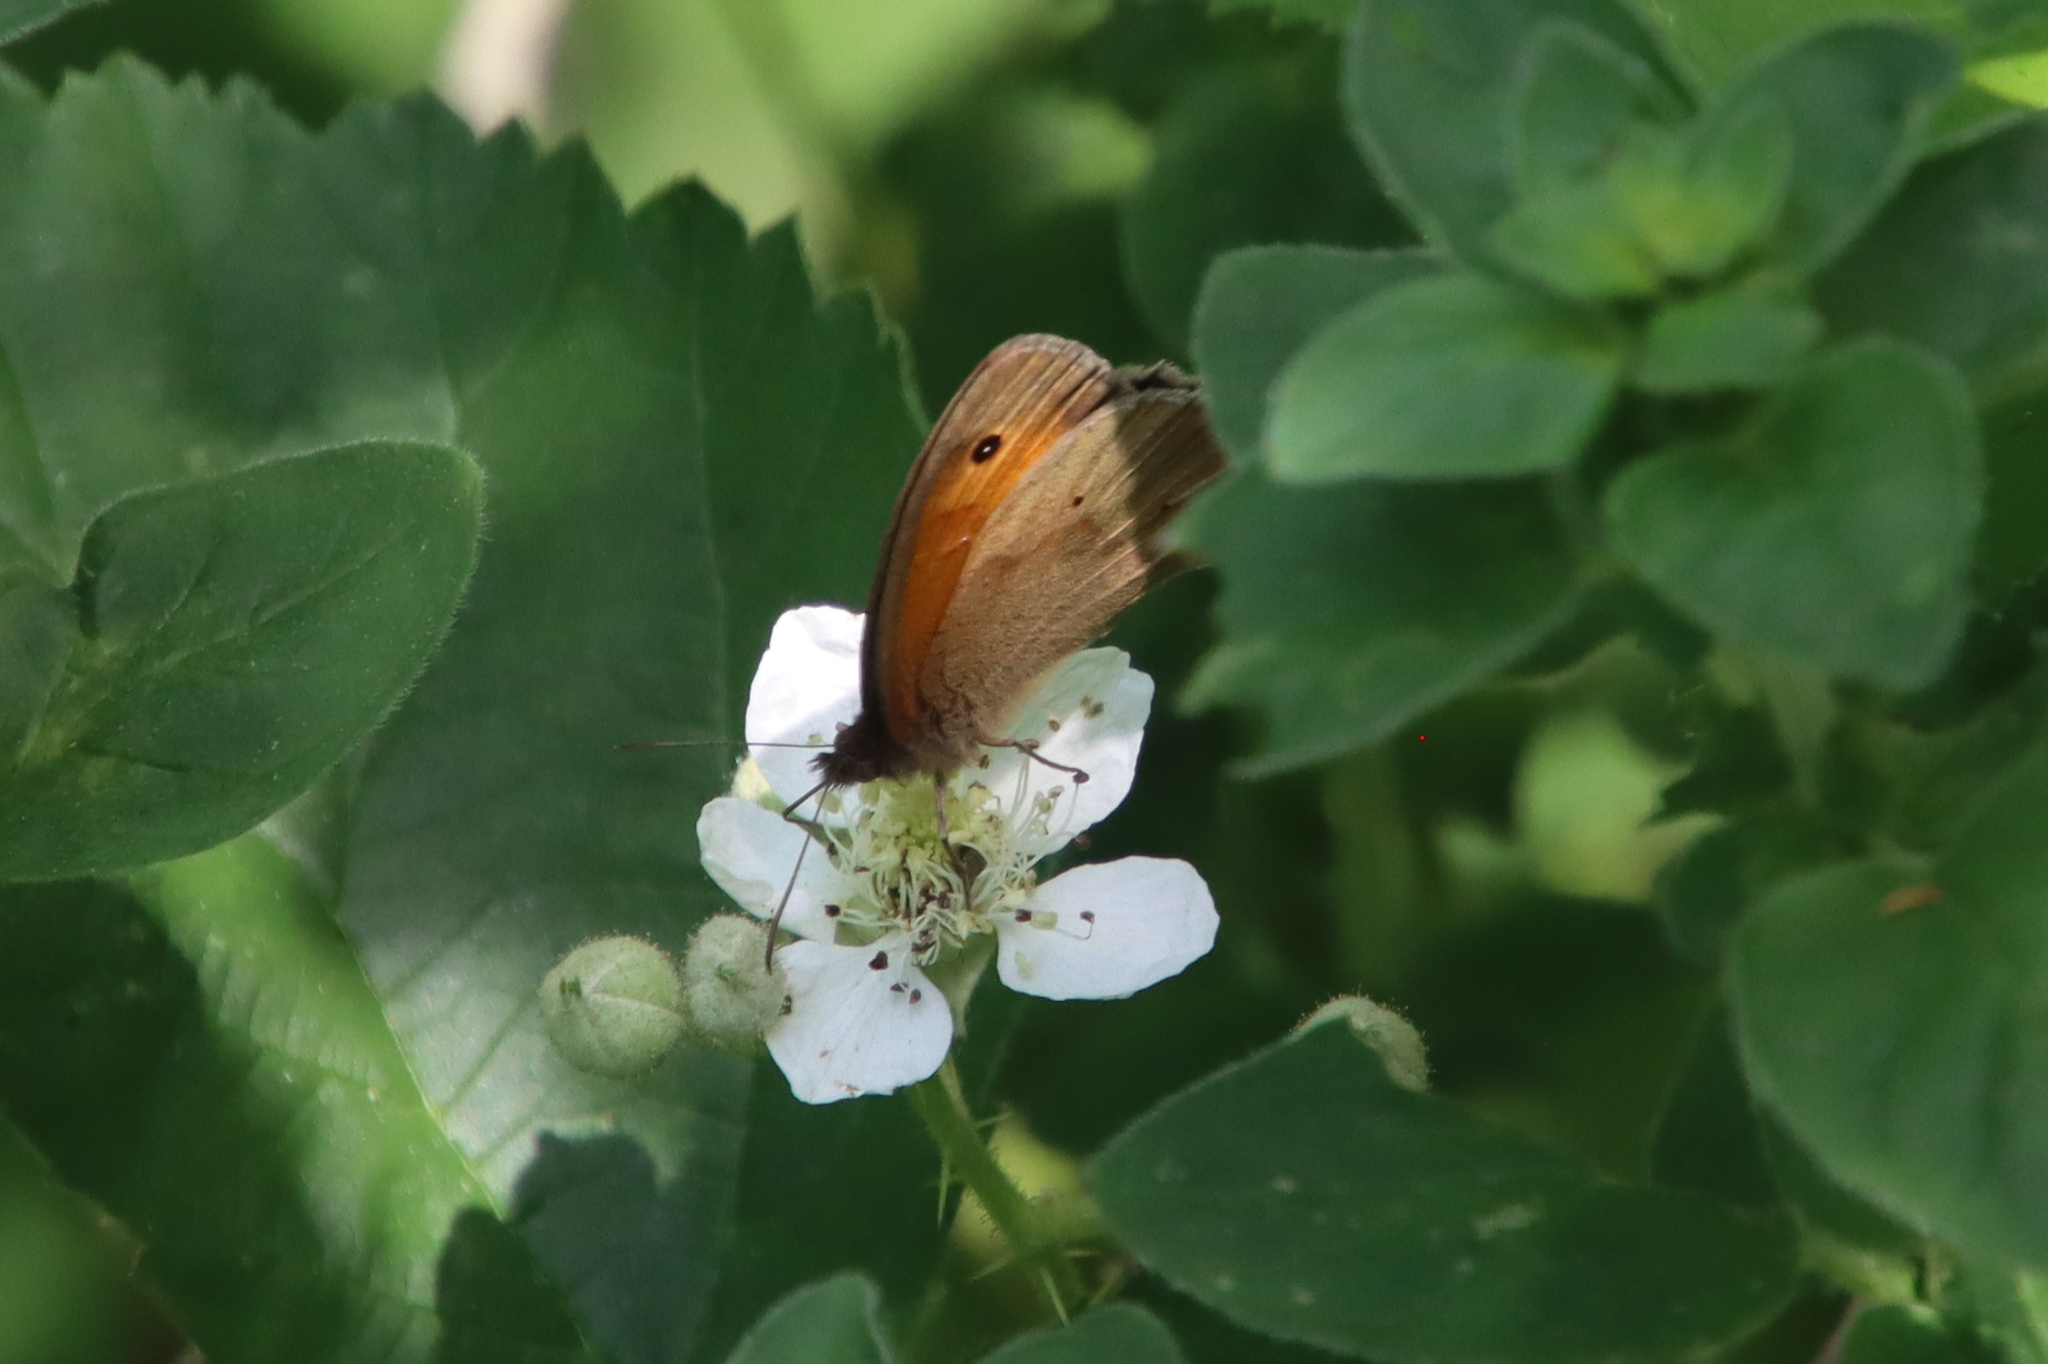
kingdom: Animalia
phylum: Arthropoda
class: Insecta
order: Lepidoptera
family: Nymphalidae
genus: Maniola
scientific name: Maniola jurtina
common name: Meadow brown
